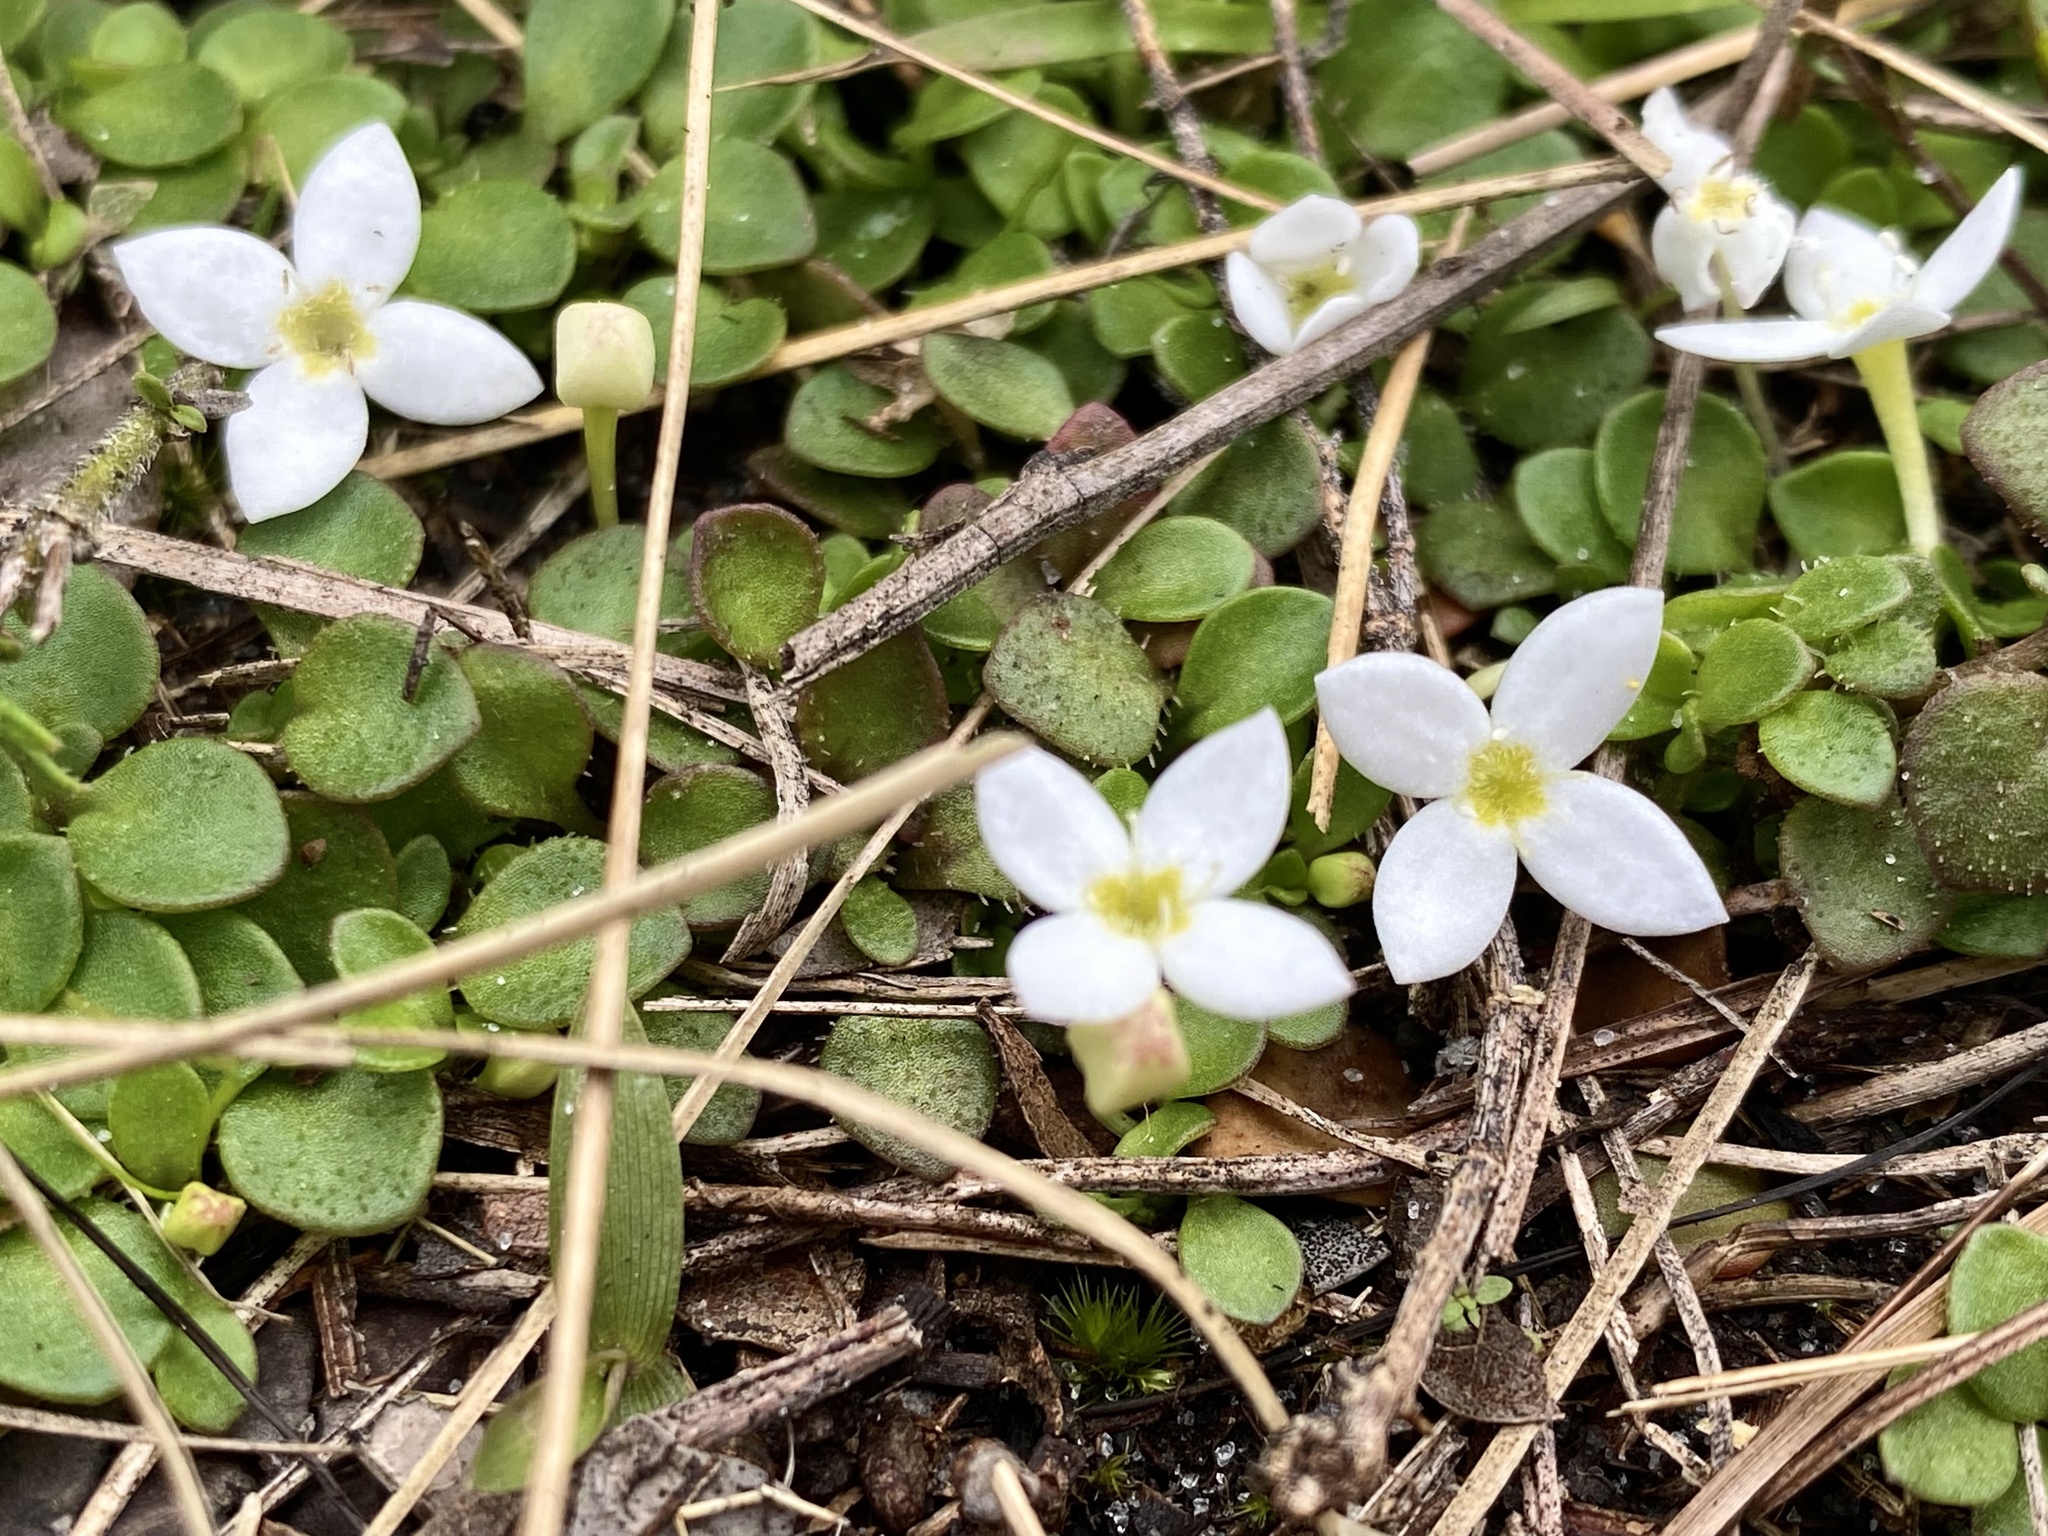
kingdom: Plantae
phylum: Tracheophyta
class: Magnoliopsida
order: Gentianales
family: Rubiaceae
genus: Houstonia
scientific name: Houstonia procumbens
